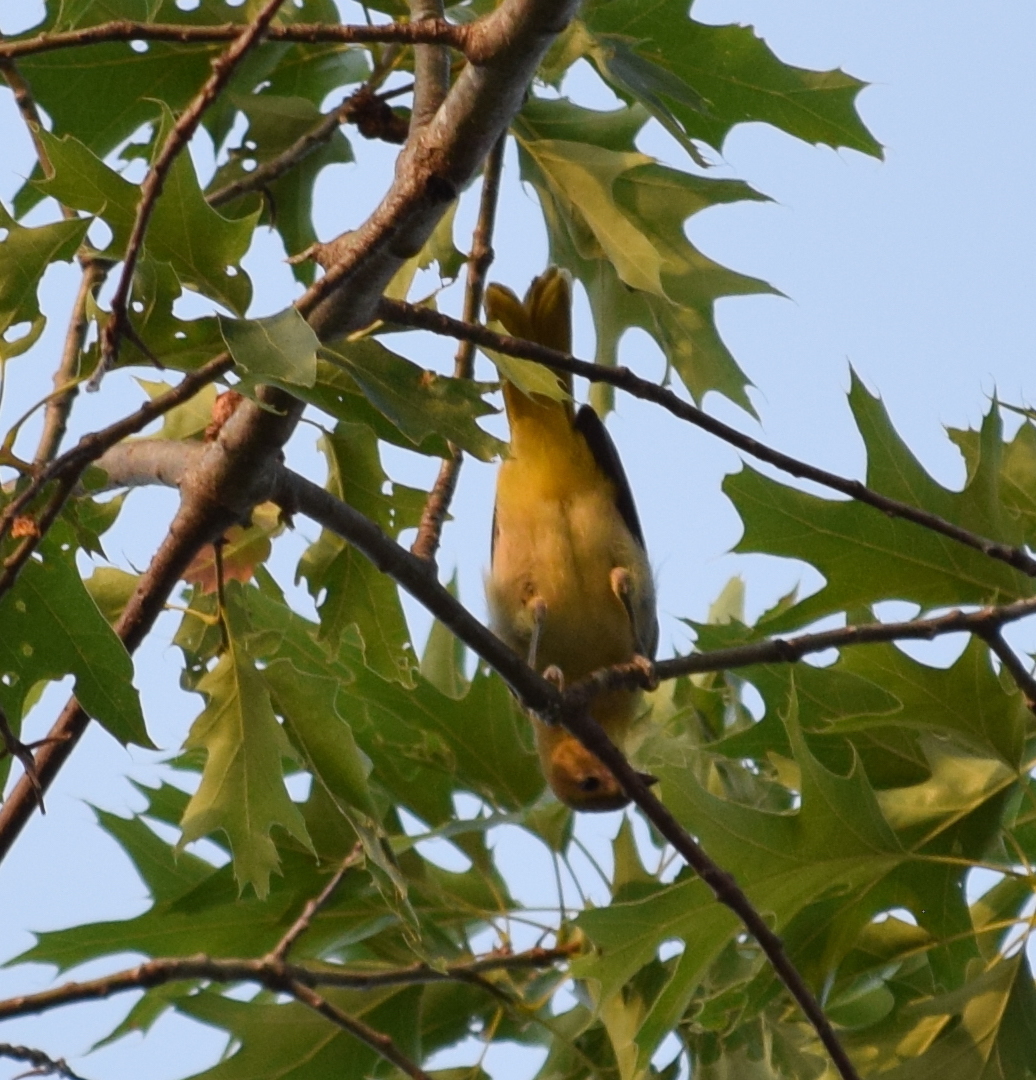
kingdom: Animalia
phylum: Chordata
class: Aves
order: Passeriformes
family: Icteridae
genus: Icterus
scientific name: Icterus galbula
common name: Baltimore oriole
